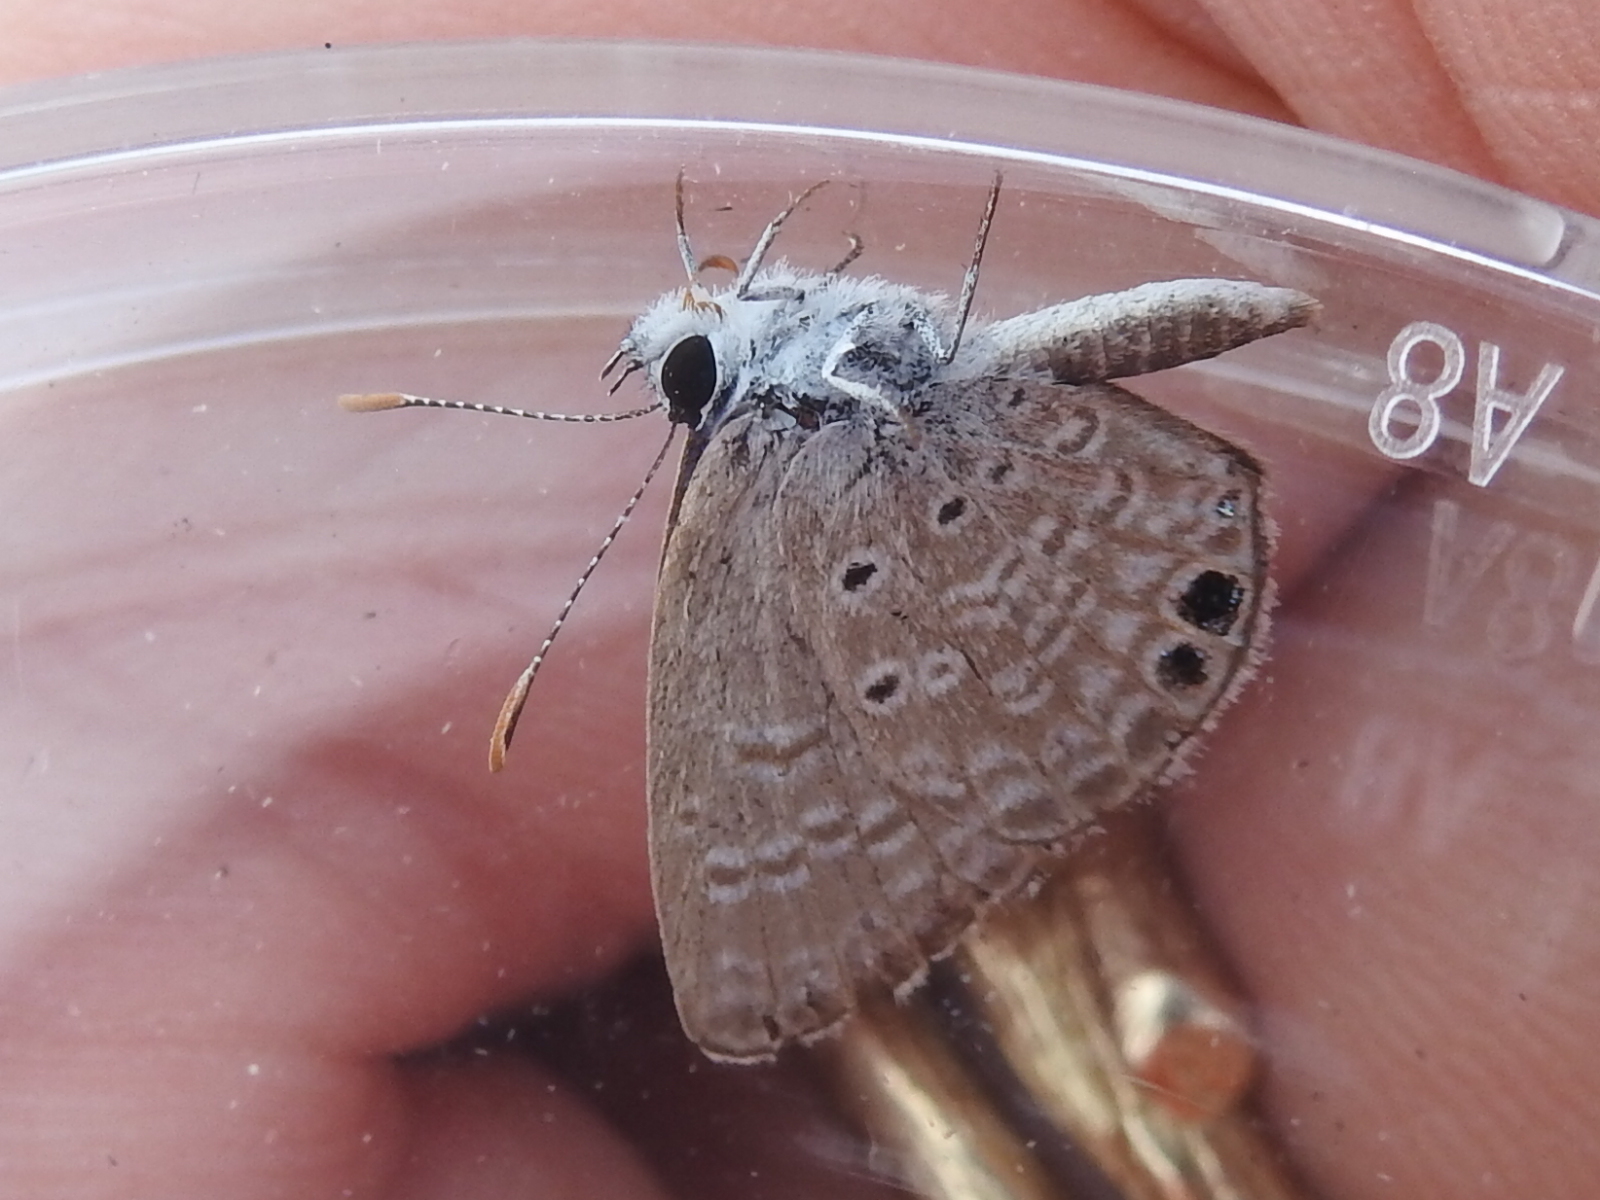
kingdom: Animalia
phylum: Arthropoda
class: Insecta
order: Lepidoptera
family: Lycaenidae
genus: Hemiargus
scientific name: Hemiargus ceraunus
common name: Ceraunus blue
